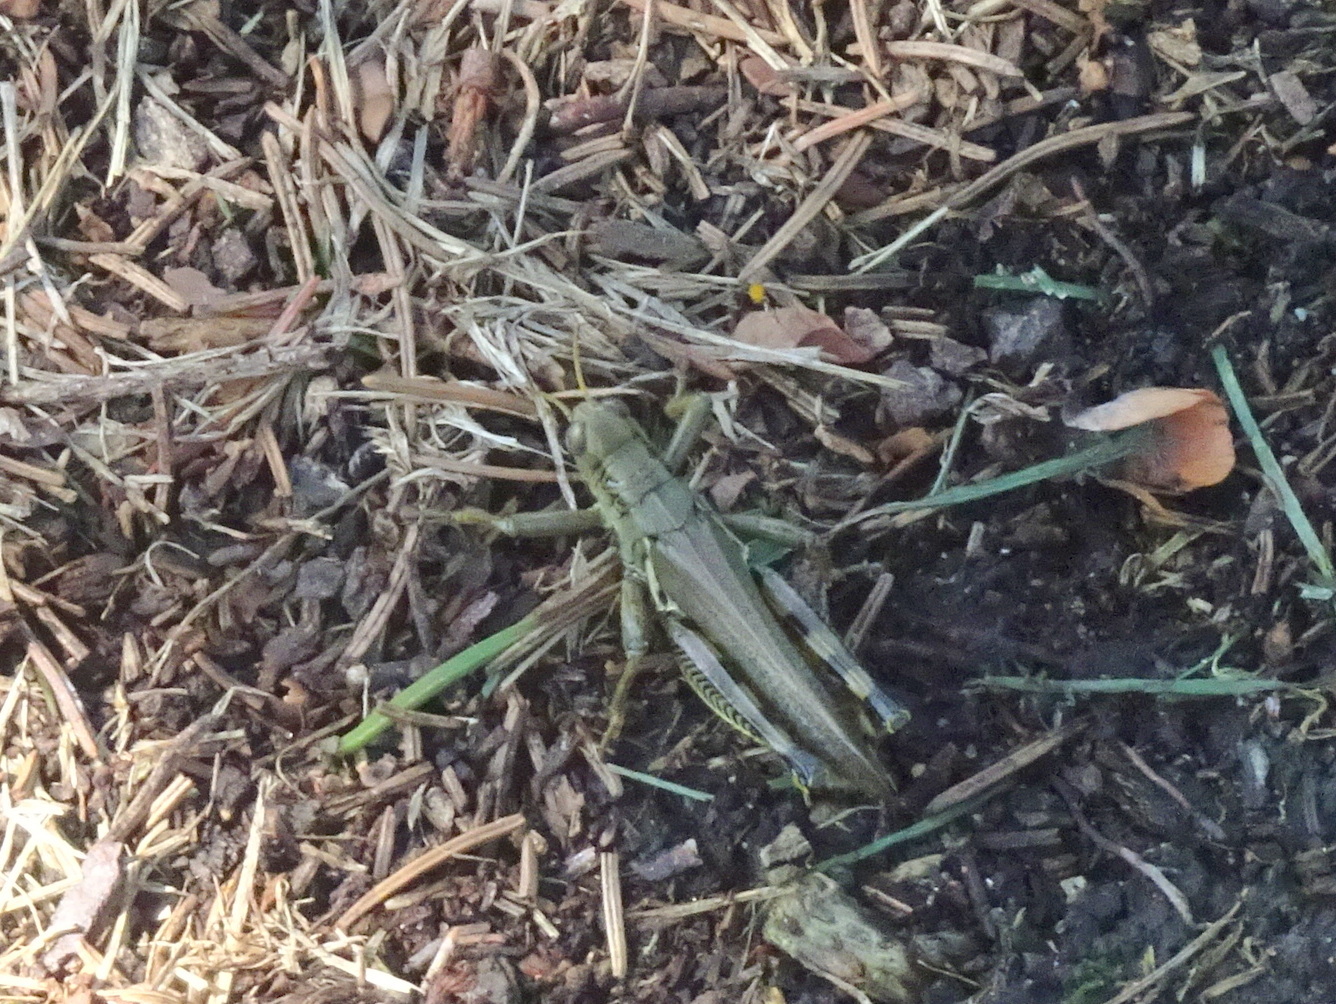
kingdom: Animalia
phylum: Arthropoda
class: Insecta
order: Orthoptera
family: Acrididae
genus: Melanoplus
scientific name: Melanoplus differentialis
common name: Differential grasshopper
